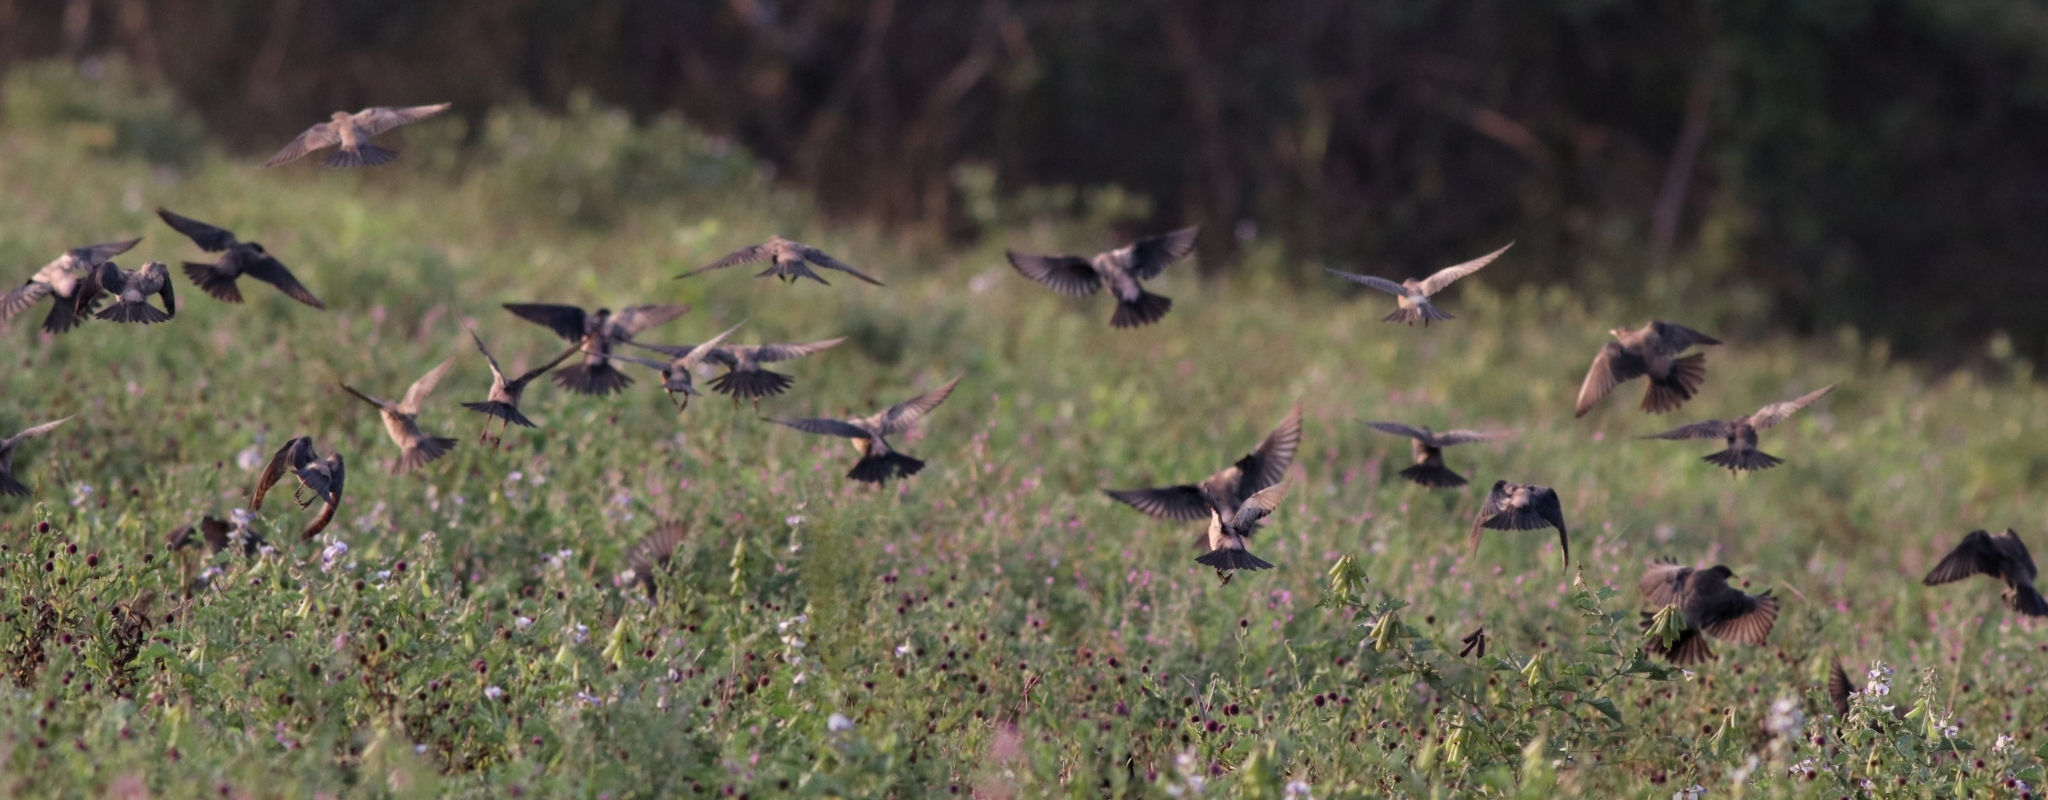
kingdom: Animalia
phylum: Chordata
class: Aves
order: Passeriformes
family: Sturnidae
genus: Pastor
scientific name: Pastor roseus
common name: Rosy starling
